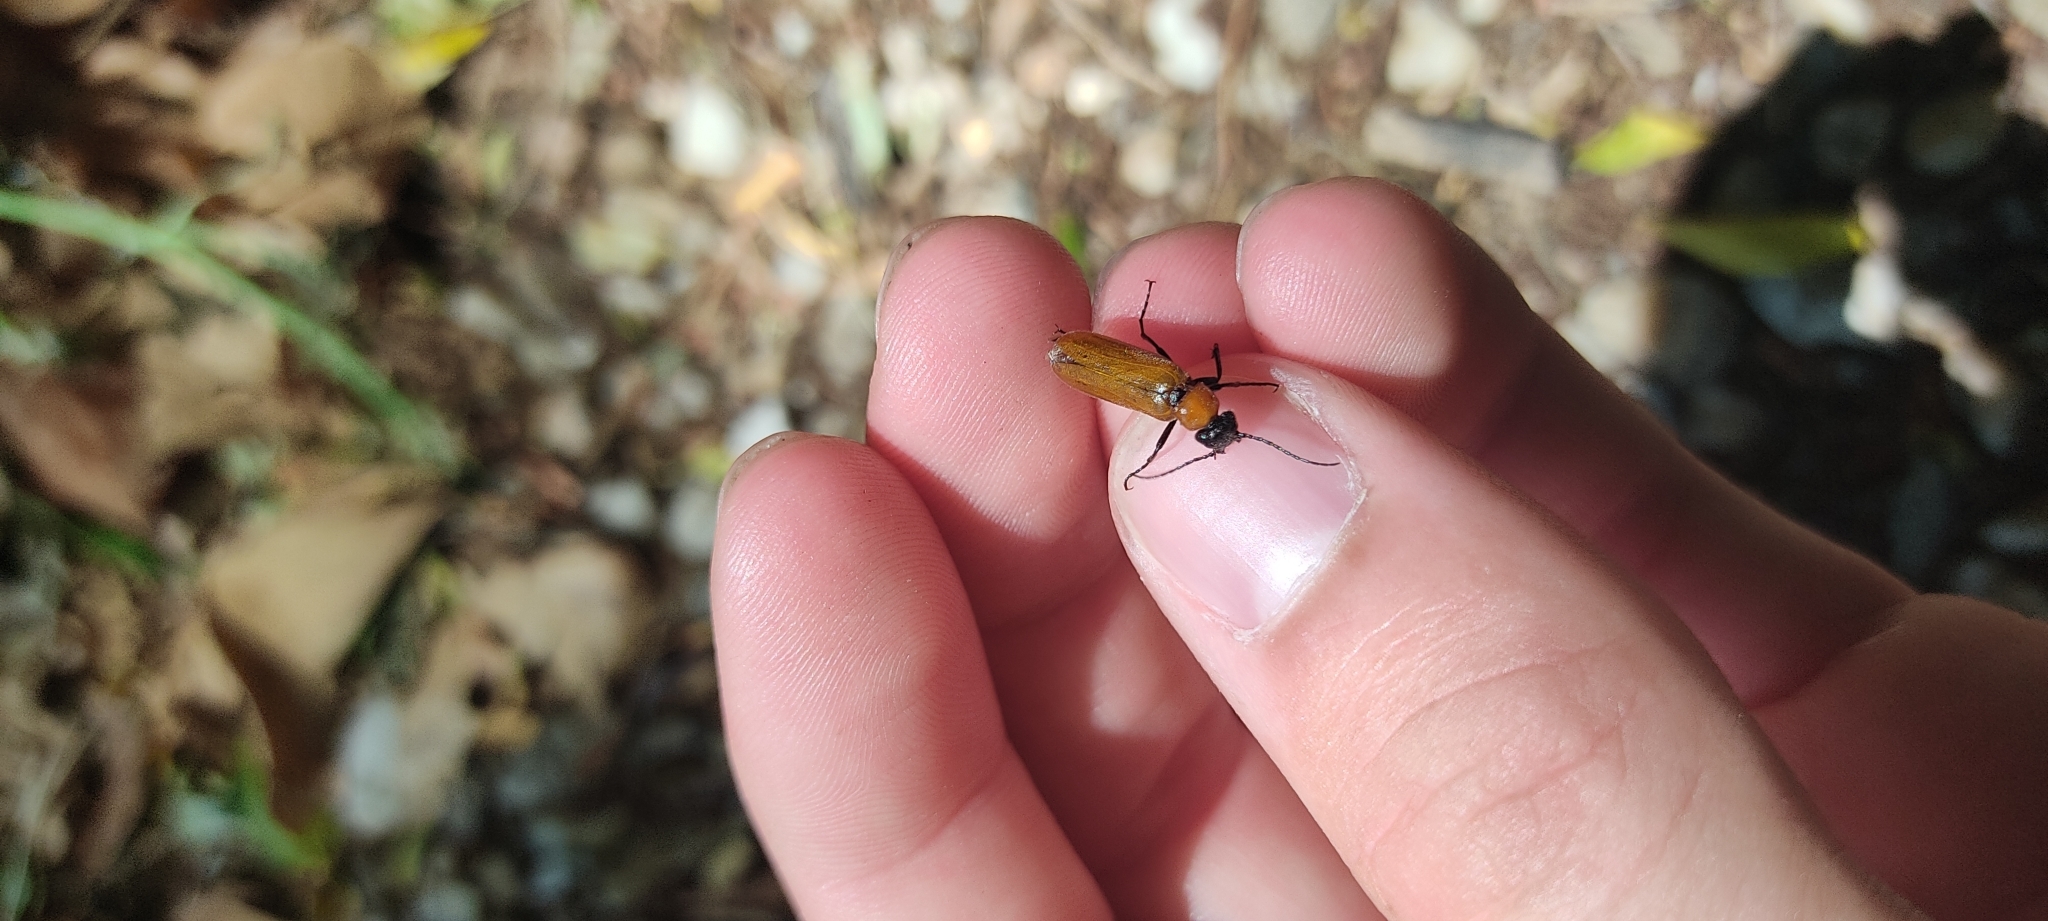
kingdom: Animalia
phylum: Arthropoda
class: Insecta
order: Coleoptera
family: Chrysomelidae
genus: Exosoma
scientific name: Exosoma lusitanicum
